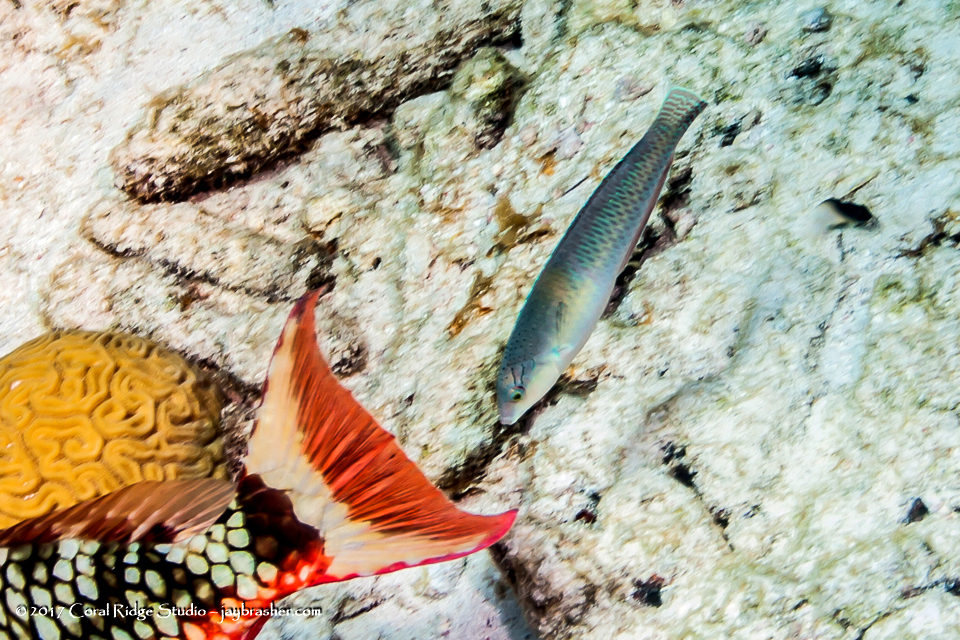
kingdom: Animalia
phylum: Chordata
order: Perciformes
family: Labridae
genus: Halichoeres
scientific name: Halichoeres garnoti
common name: Yellowhead wrasse
